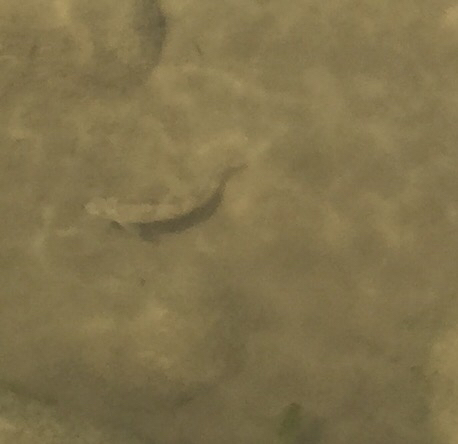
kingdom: Animalia
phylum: Chordata
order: Cypriniformes
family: Catostomidae
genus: Catostomus
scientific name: Catostomus tahoensis
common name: Tahoe sucker
